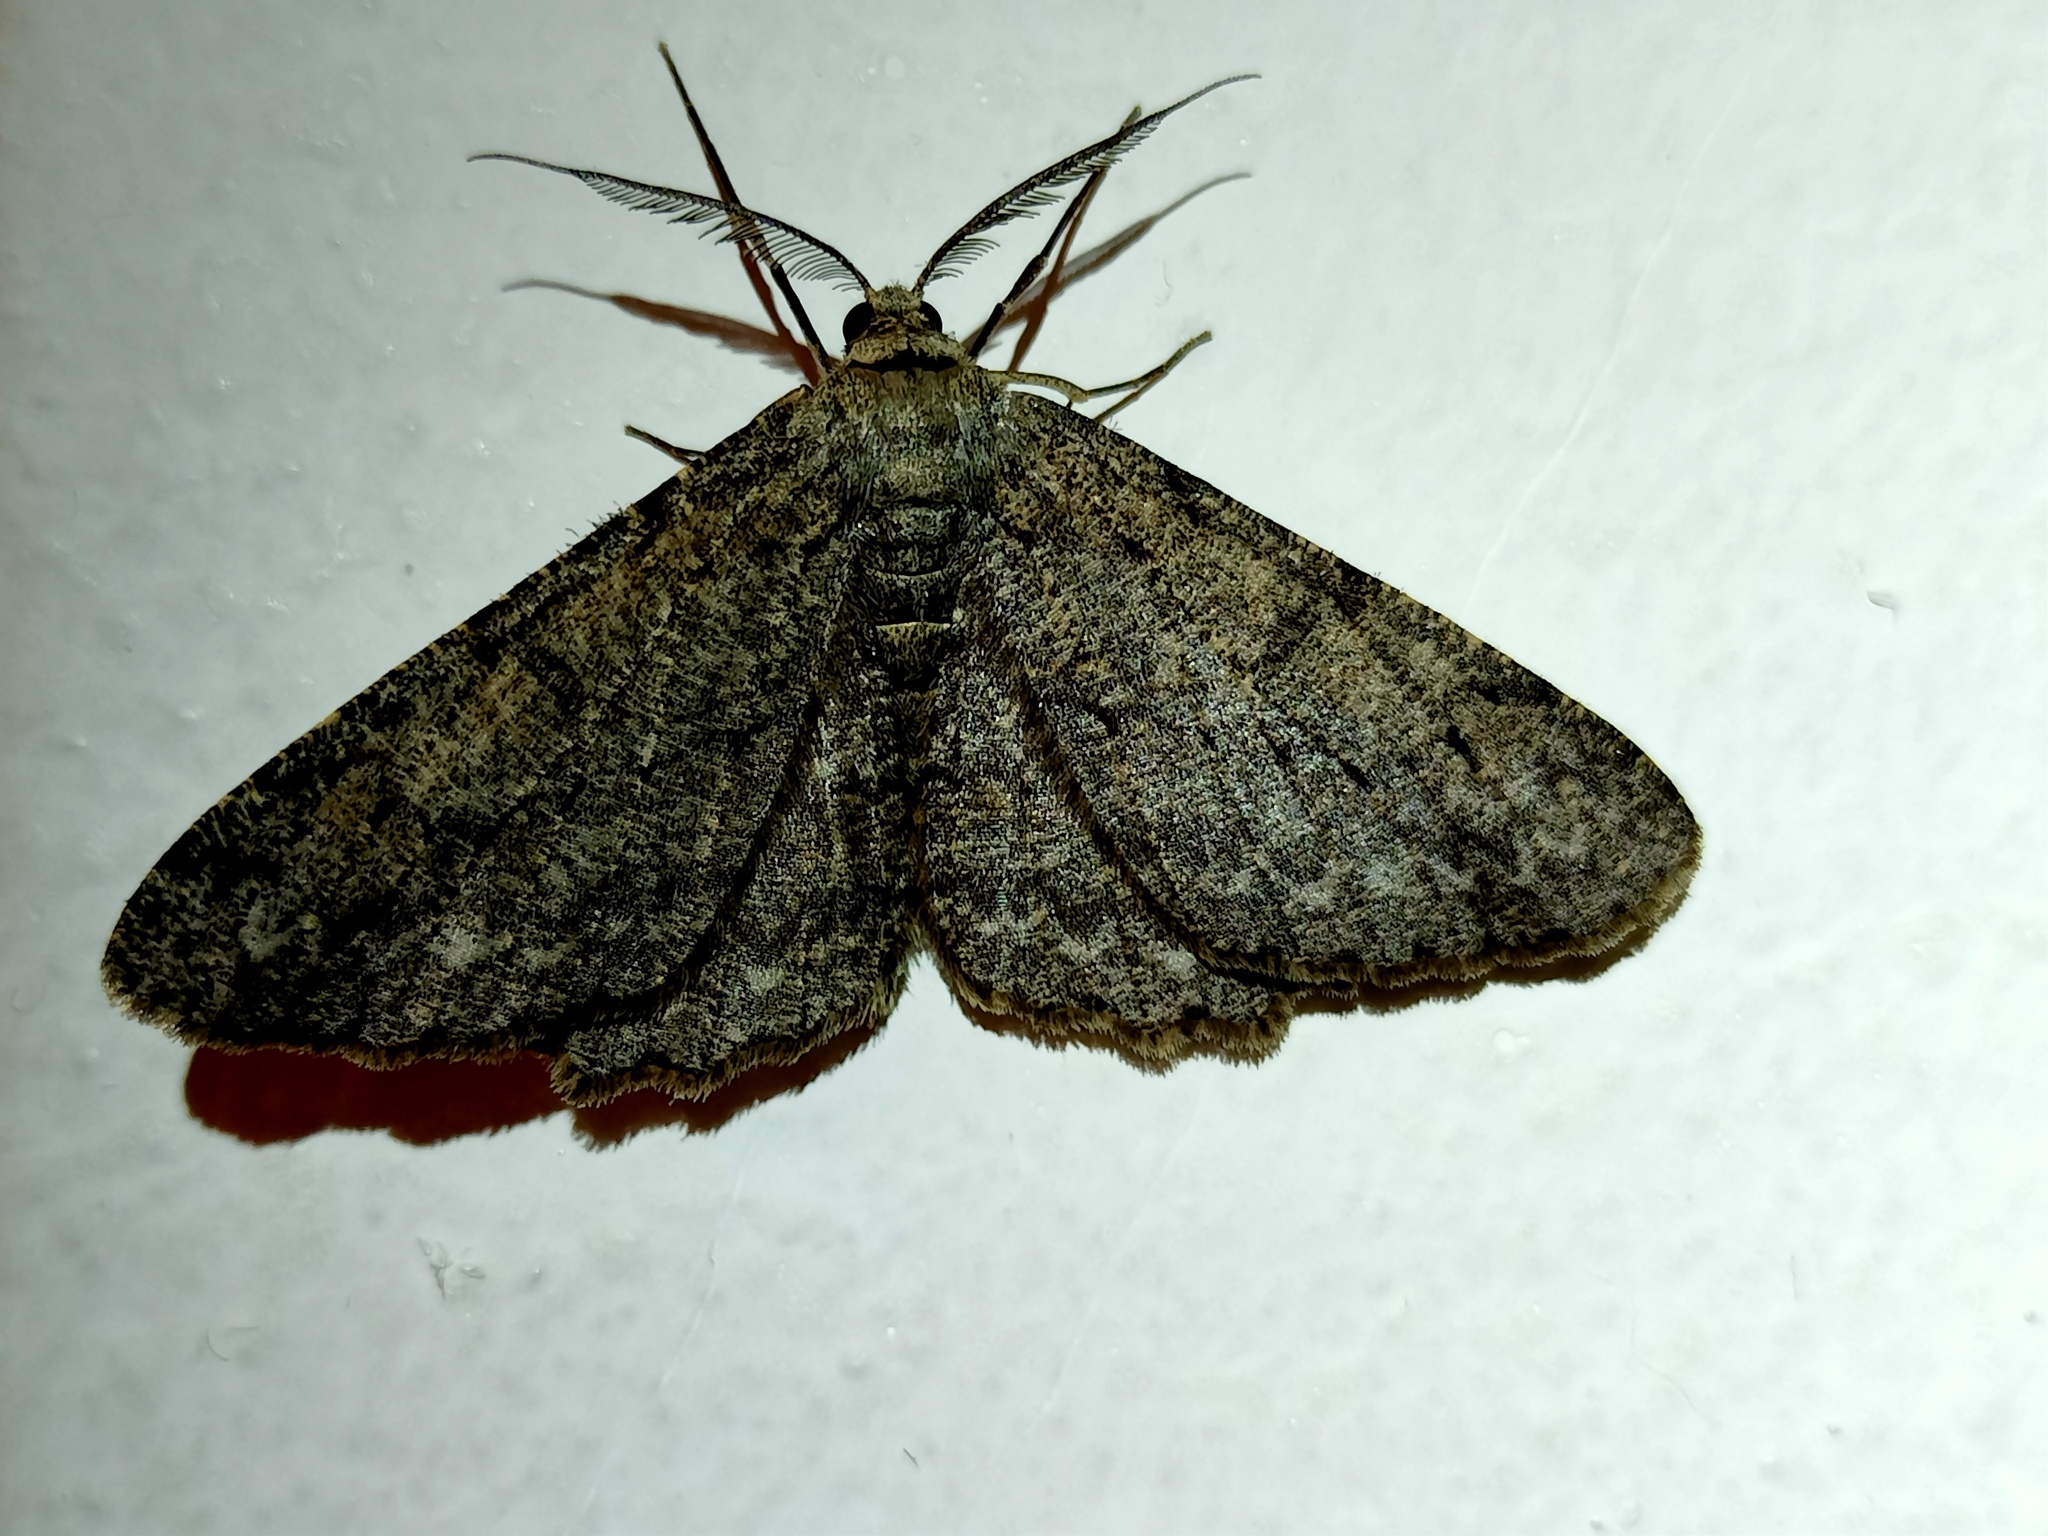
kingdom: Animalia
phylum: Arthropoda
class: Insecta
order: Lepidoptera
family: Geometridae
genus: Hypomecis
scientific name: Hypomecis punctinalis
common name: Pale oak beauty
